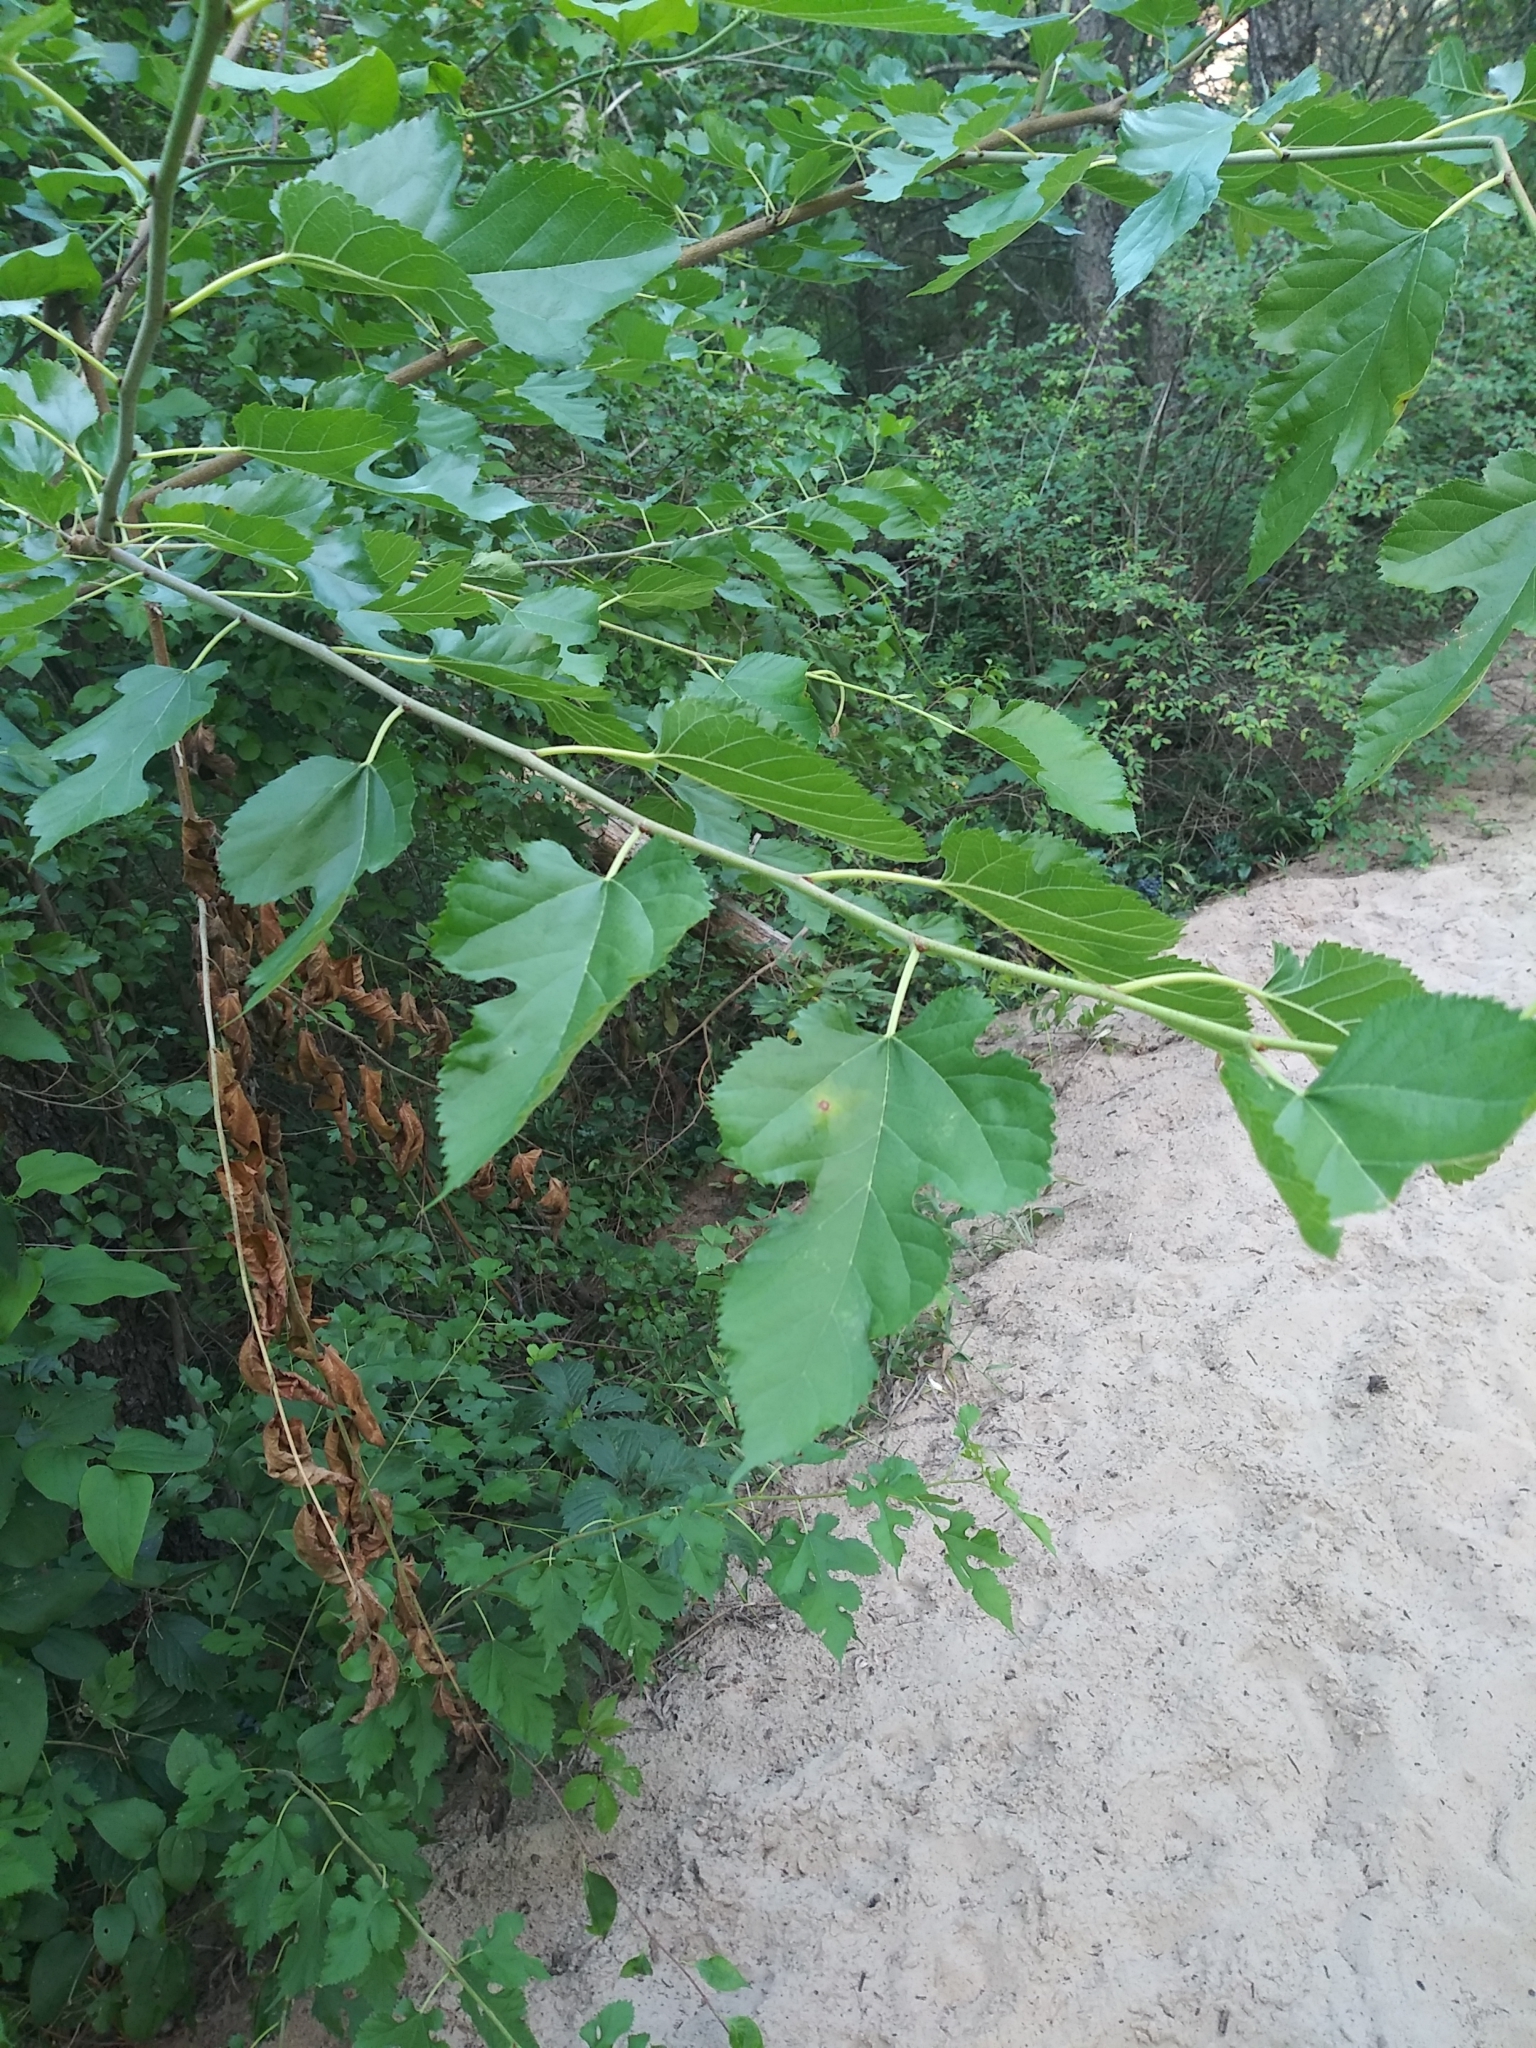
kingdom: Plantae
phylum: Tracheophyta
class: Magnoliopsida
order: Rosales
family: Moraceae
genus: Morus
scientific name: Morus alba
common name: White mulberry
